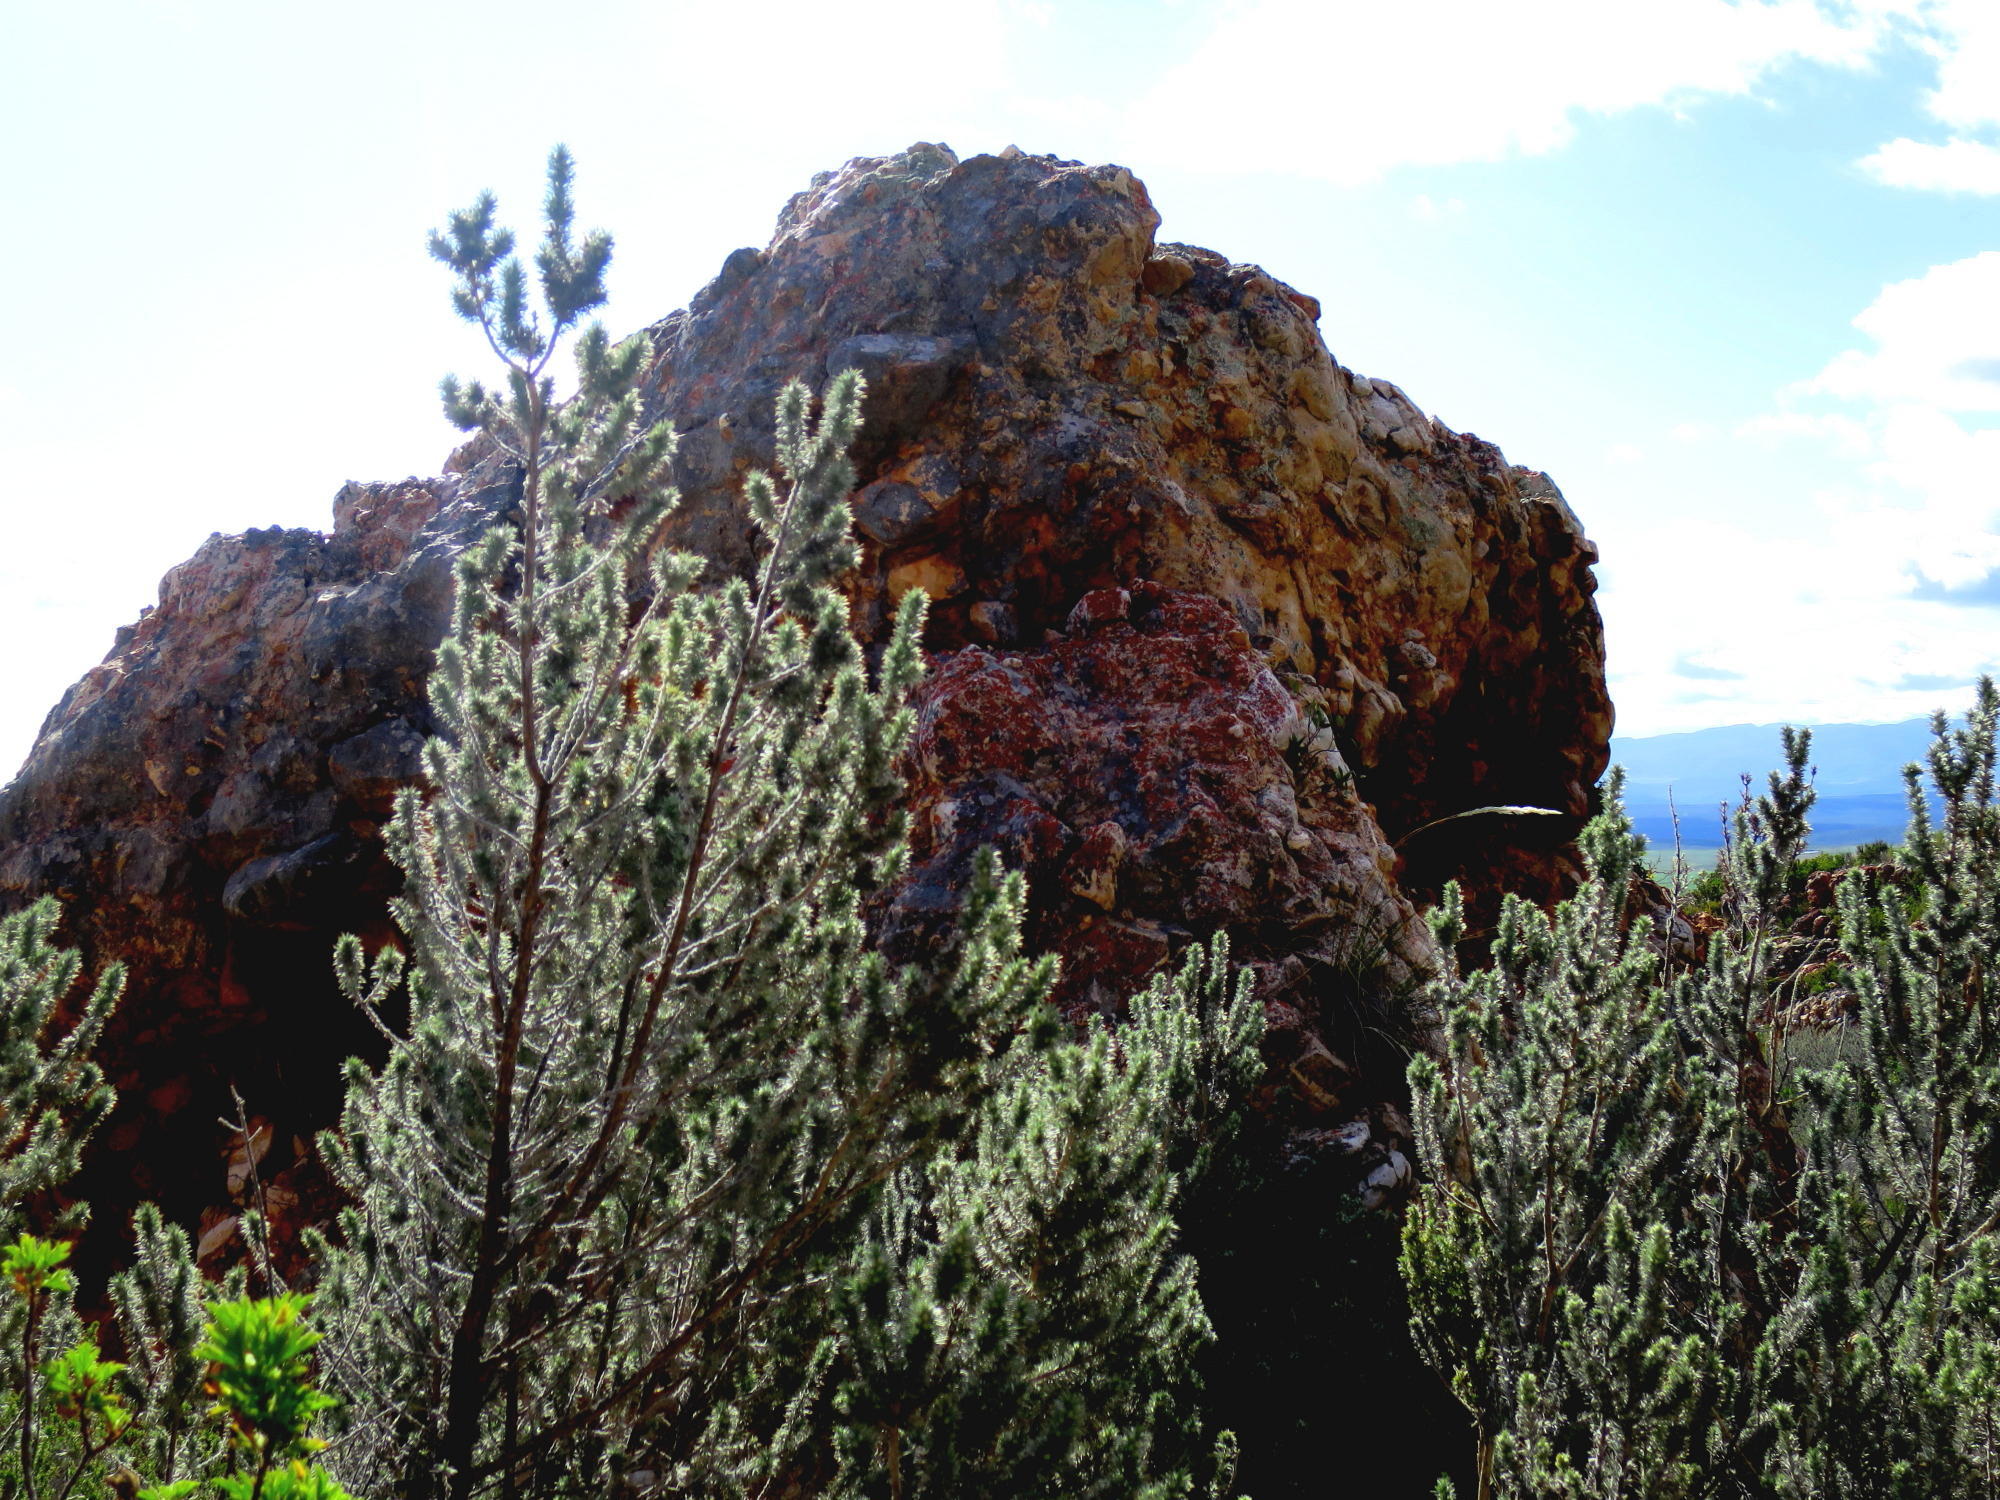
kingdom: Plantae
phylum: Tracheophyta
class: Magnoliopsida
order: Fabales
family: Fabaceae
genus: Aspalathus
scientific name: Aspalathus hystrix
